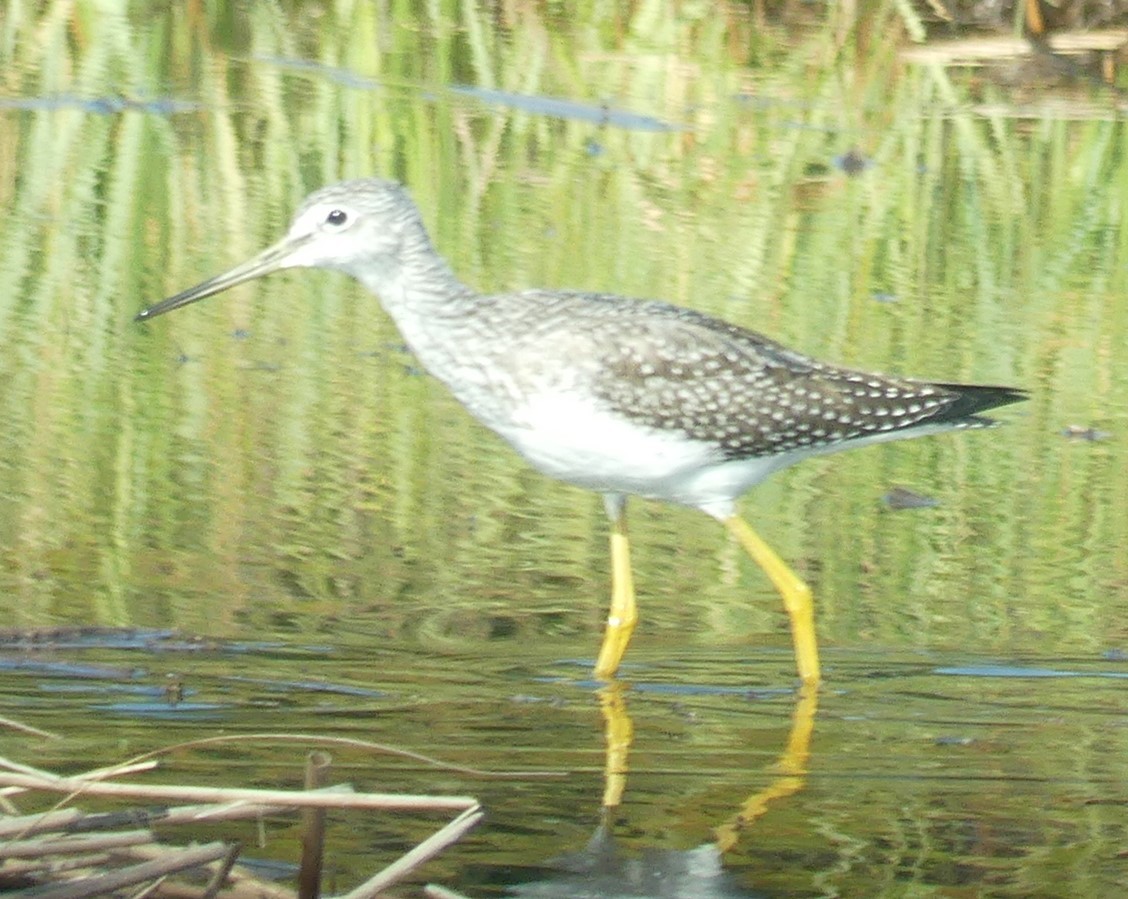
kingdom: Animalia
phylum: Chordata
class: Aves
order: Charadriiformes
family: Scolopacidae
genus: Tringa
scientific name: Tringa melanoleuca
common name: Greater yellowlegs
